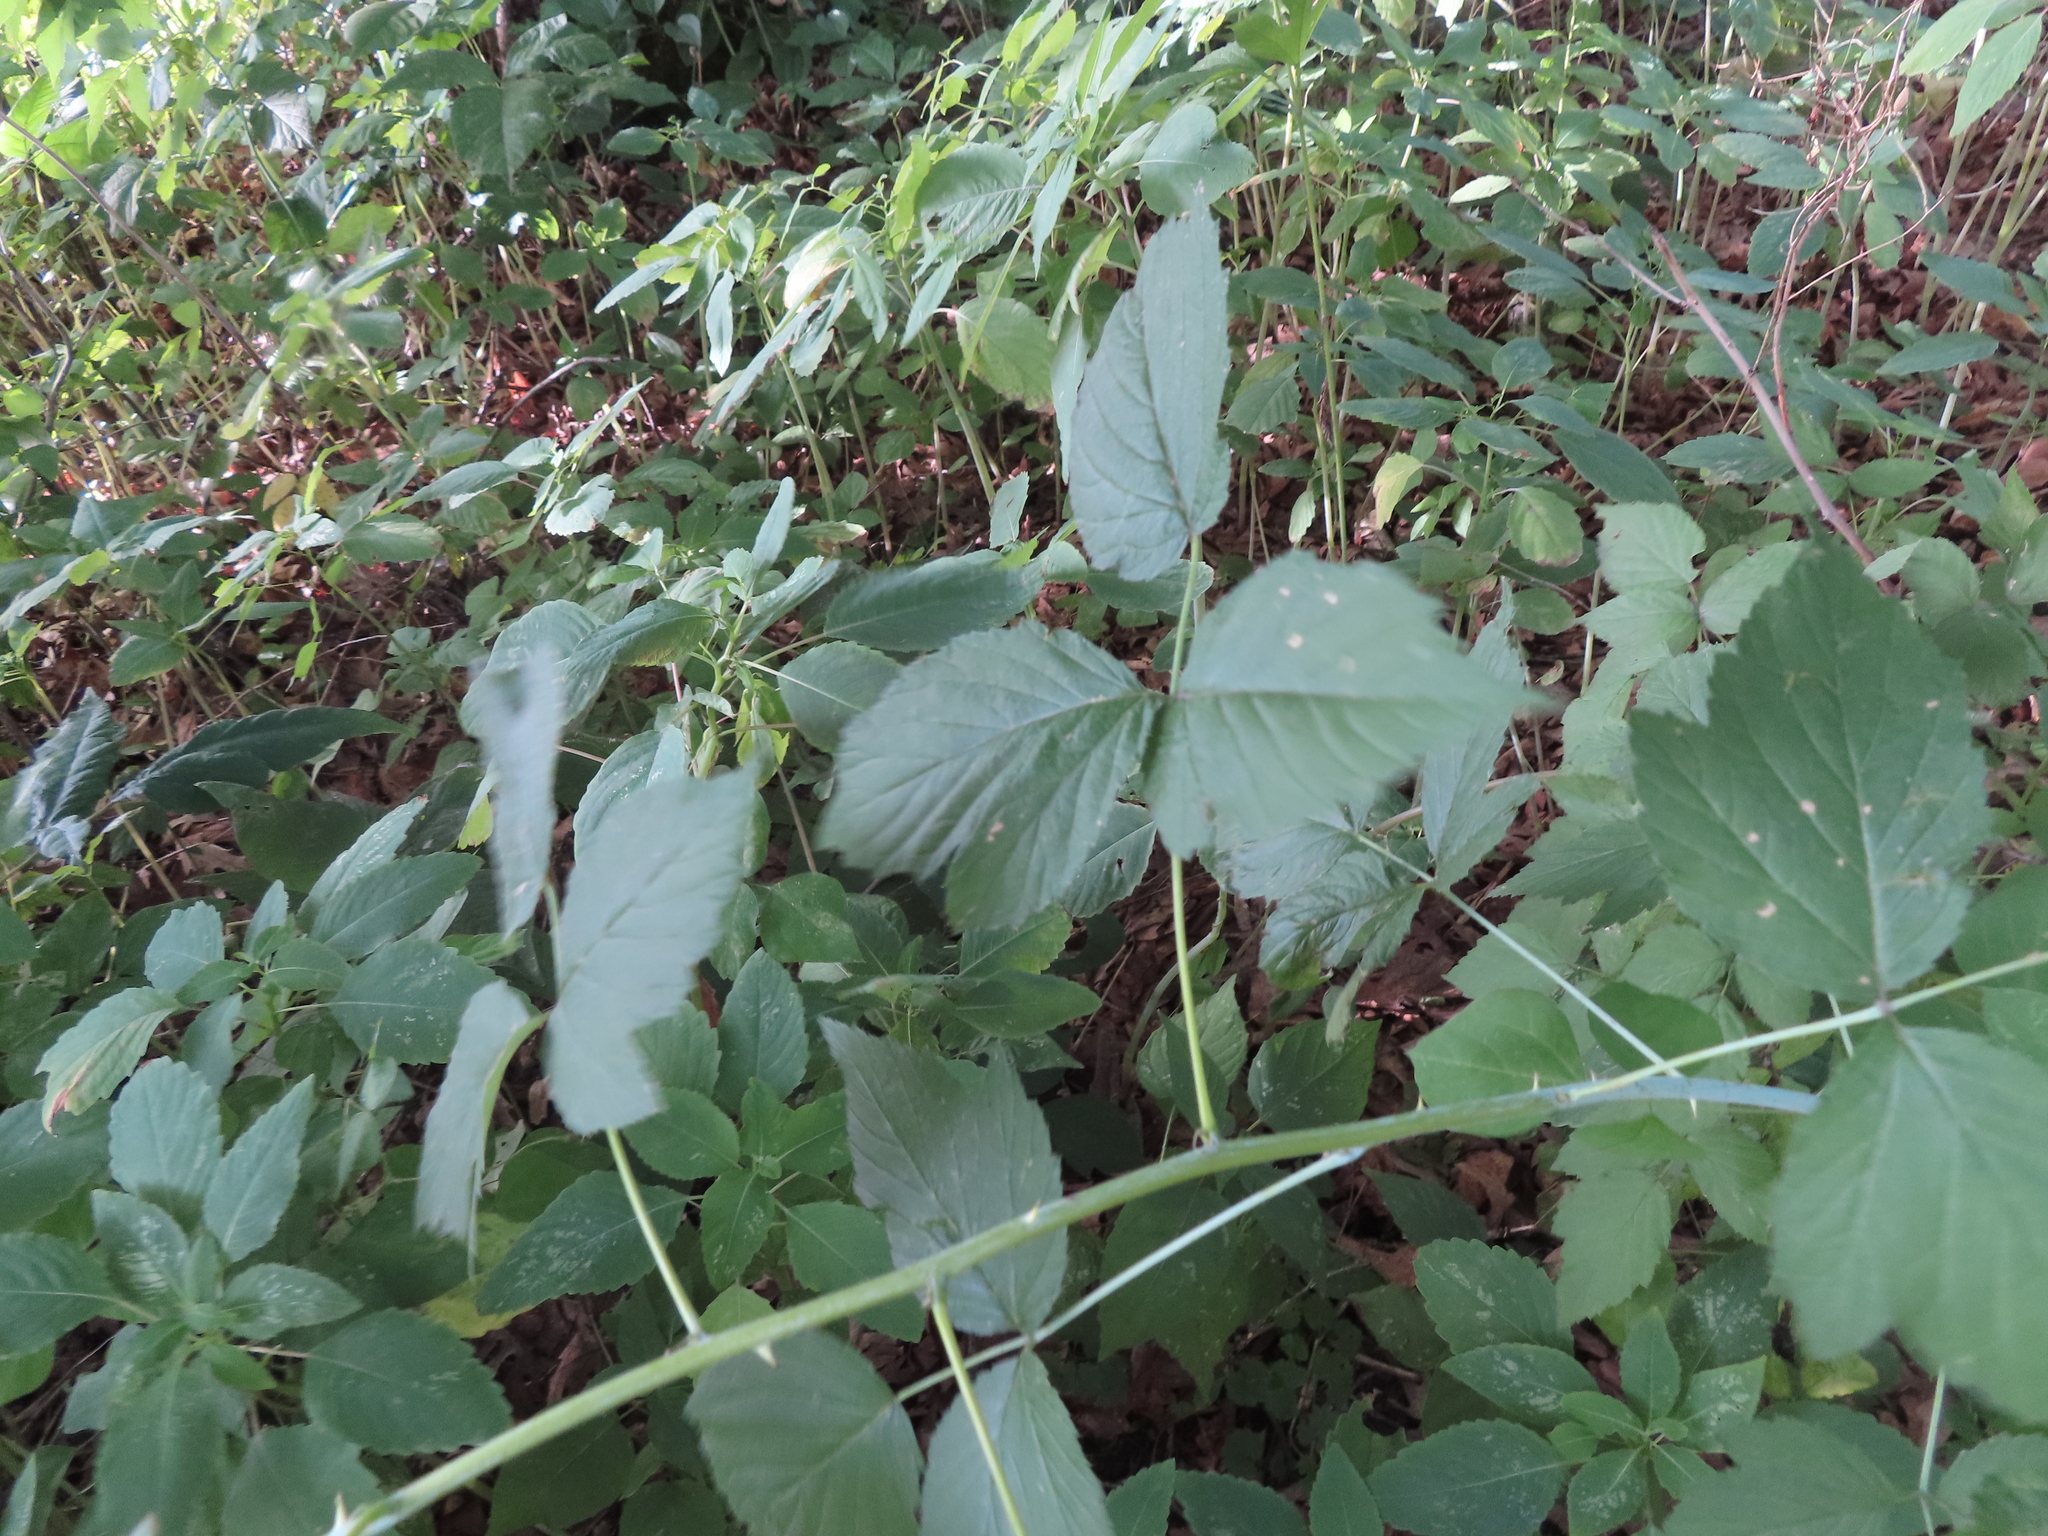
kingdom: Plantae
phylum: Tracheophyta
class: Magnoliopsida
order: Rosales
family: Rosaceae
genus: Rubus
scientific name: Rubus occidentalis
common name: Black raspberry
